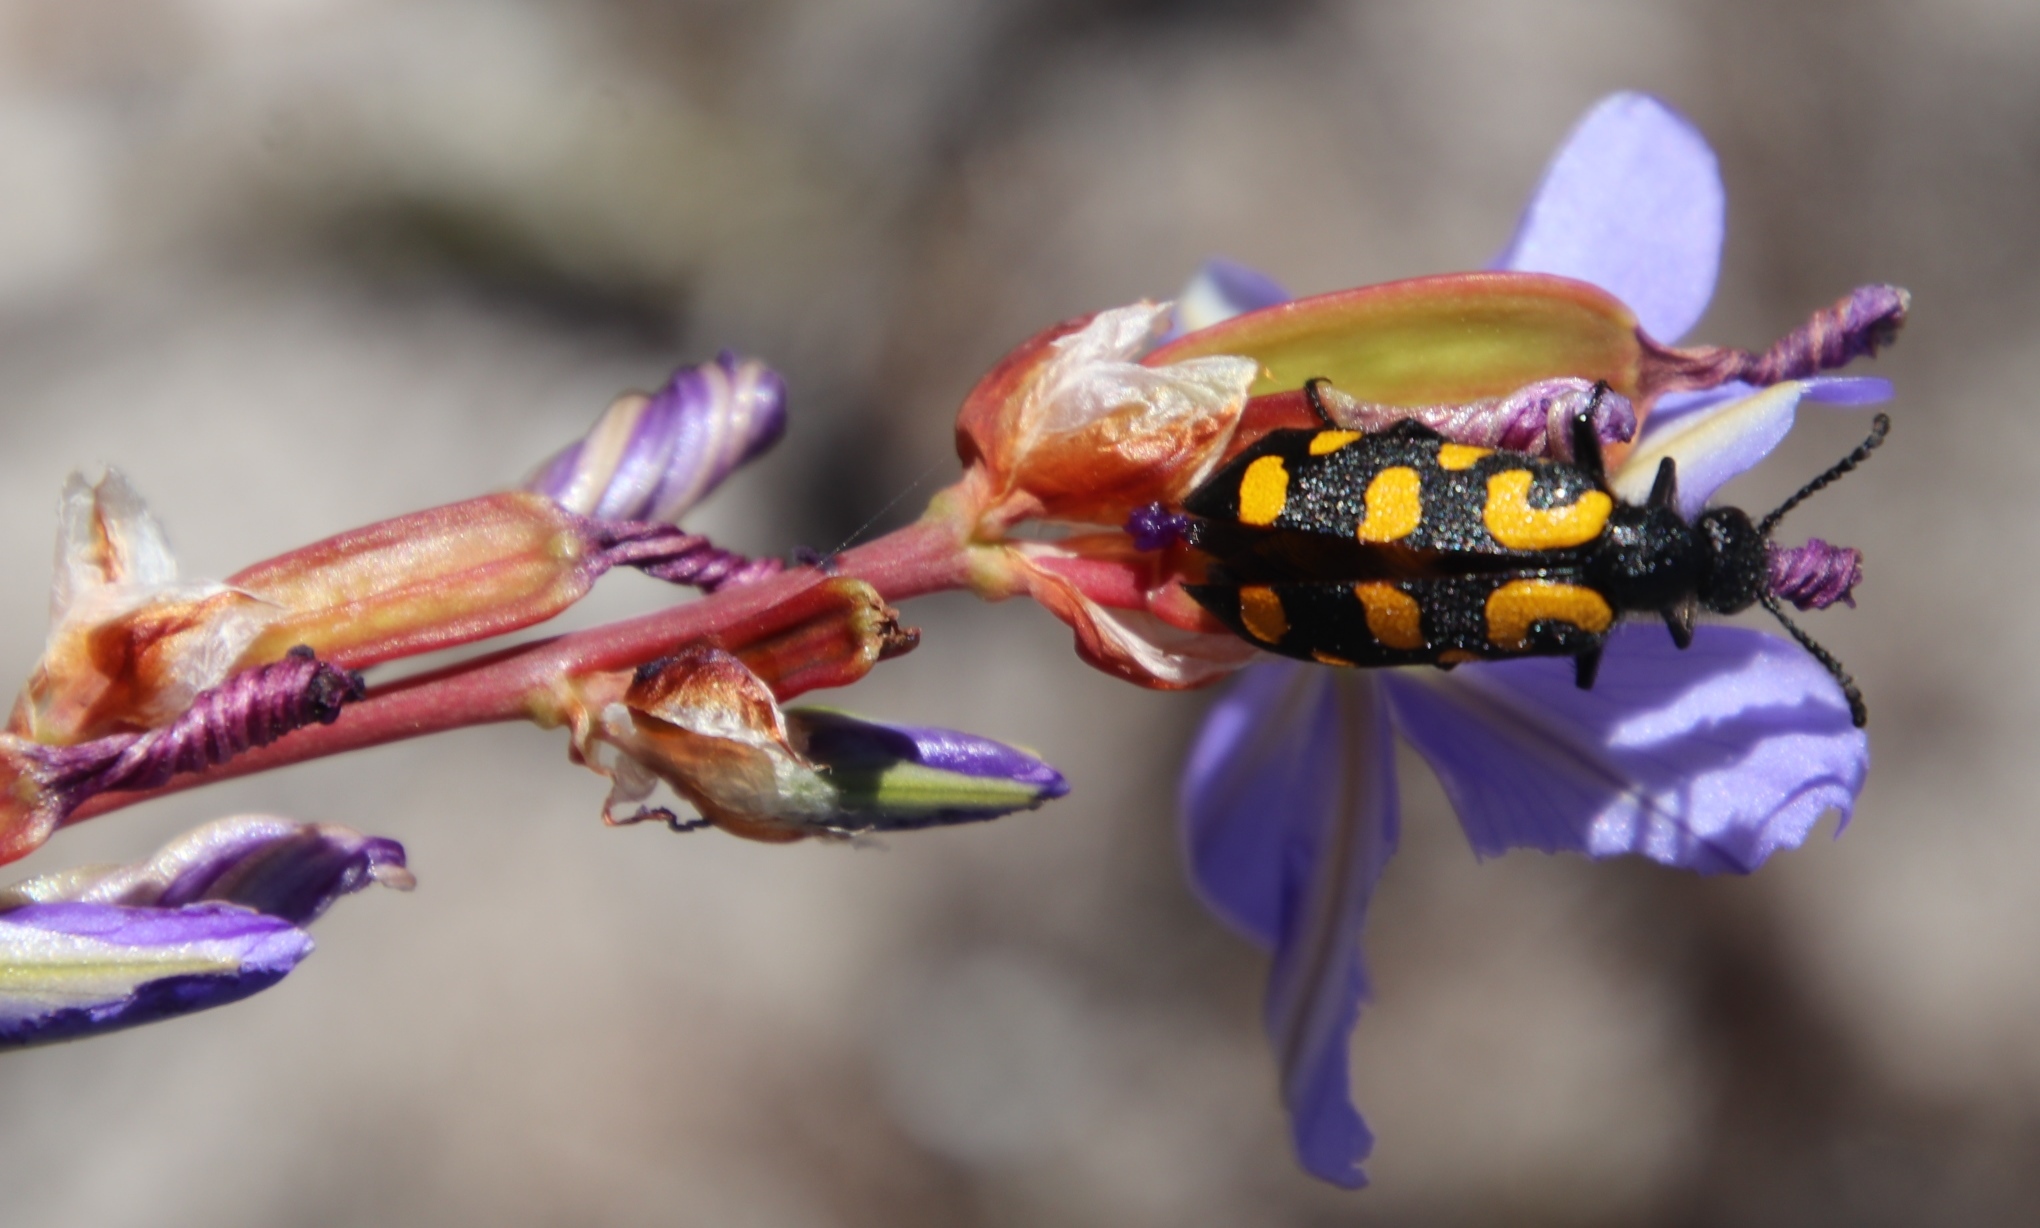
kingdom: Animalia
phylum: Arthropoda
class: Insecta
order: Coleoptera
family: Meloidae
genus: Ceroctis
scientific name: Ceroctis capensis
